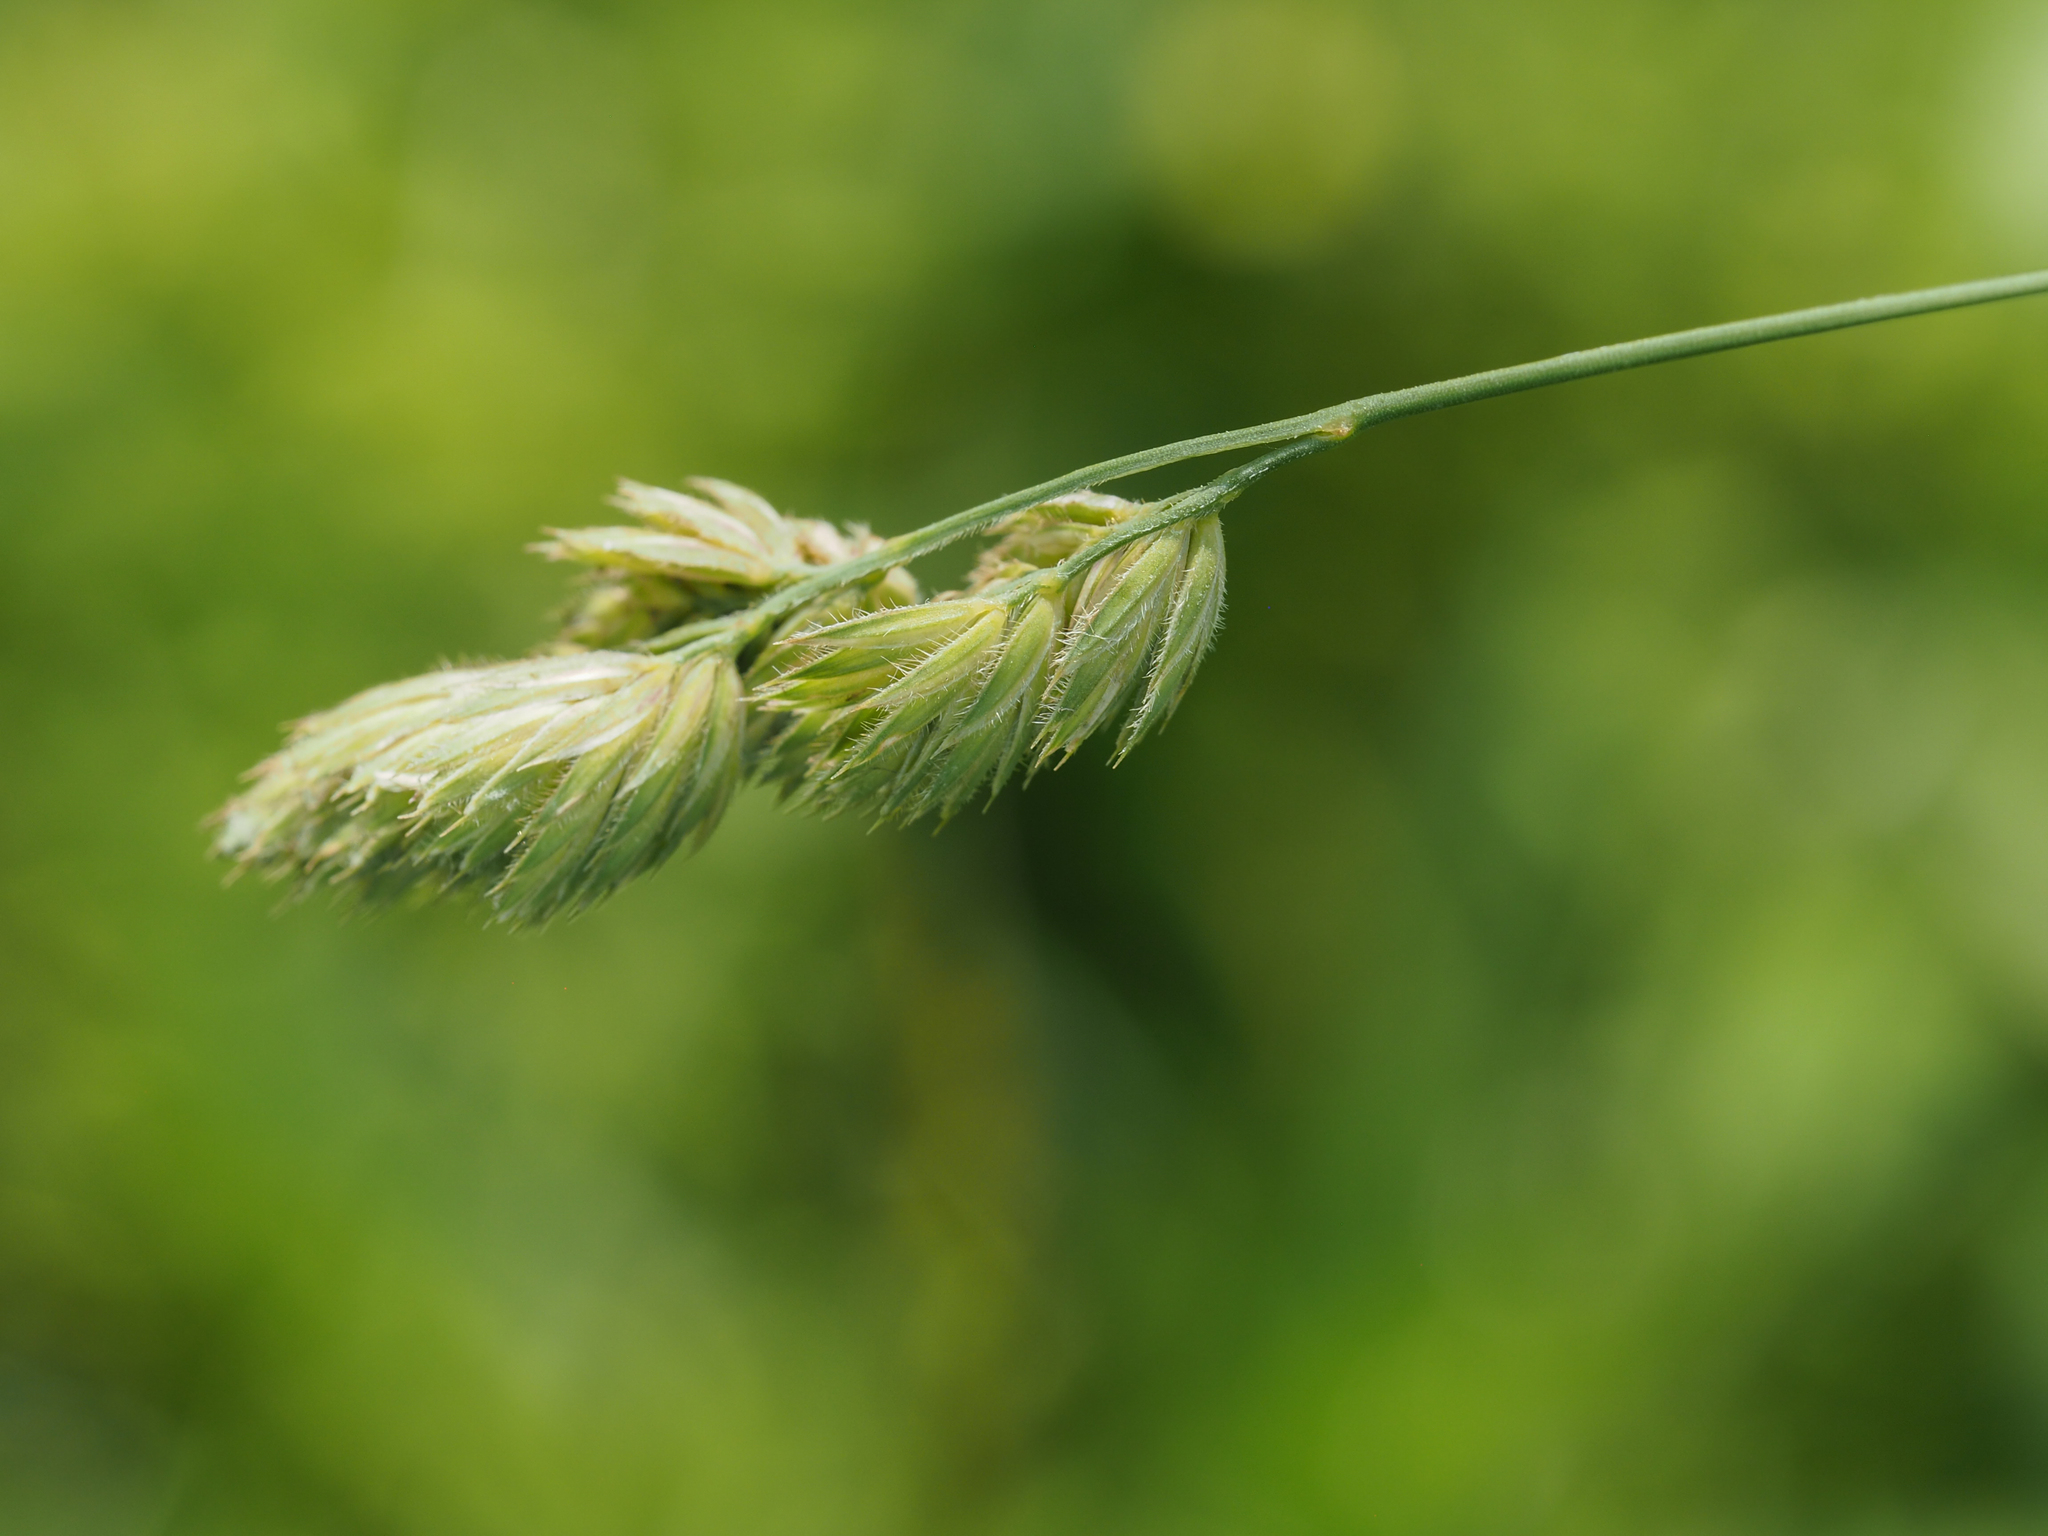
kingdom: Plantae
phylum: Tracheophyta
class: Liliopsida
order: Poales
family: Poaceae
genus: Dactylis
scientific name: Dactylis glomerata
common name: Orchardgrass
